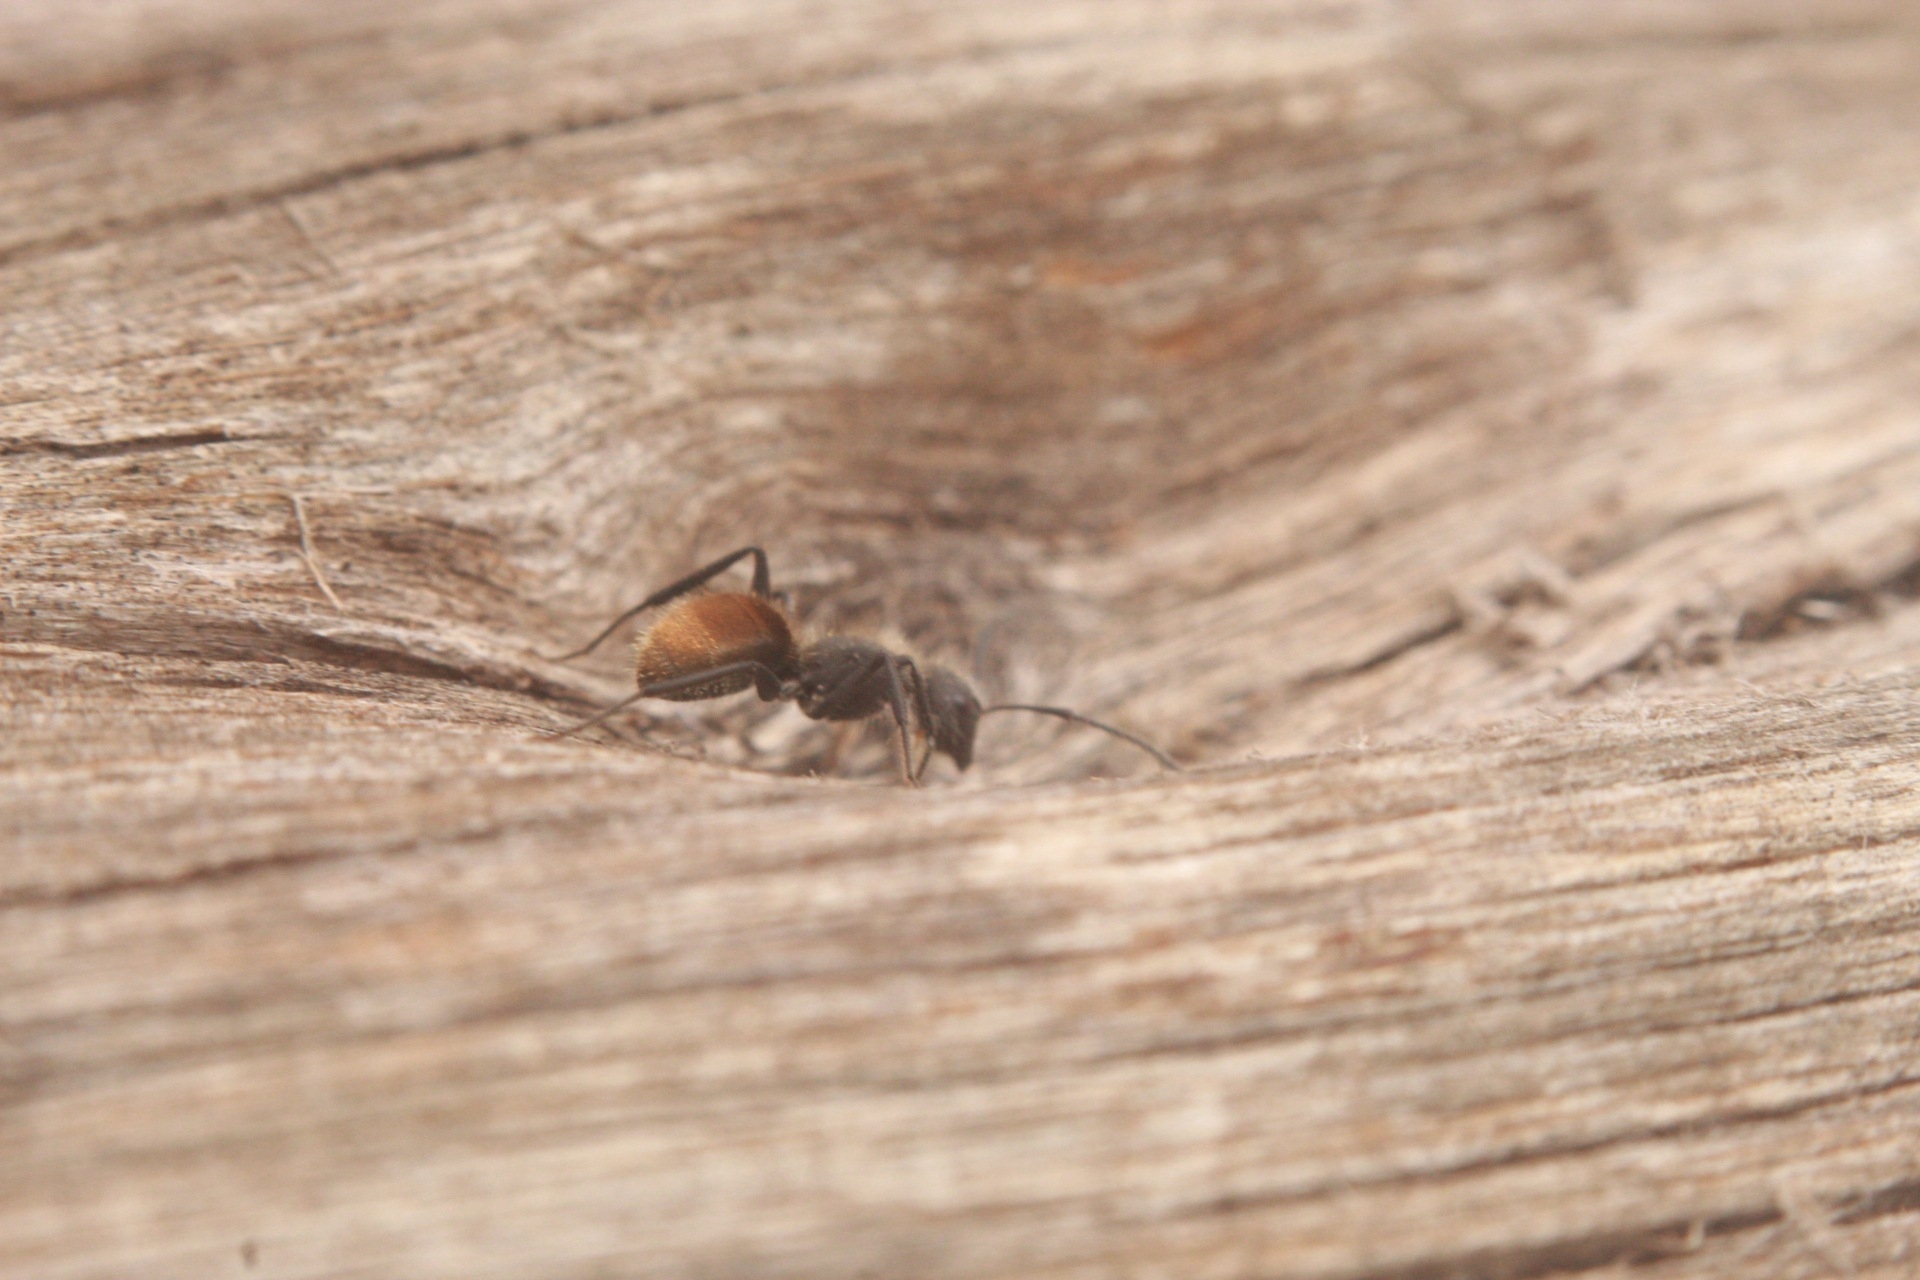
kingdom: Animalia
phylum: Arthropoda
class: Insecta
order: Hymenoptera
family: Formicidae
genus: Camponotus
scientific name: Camponotus mus
